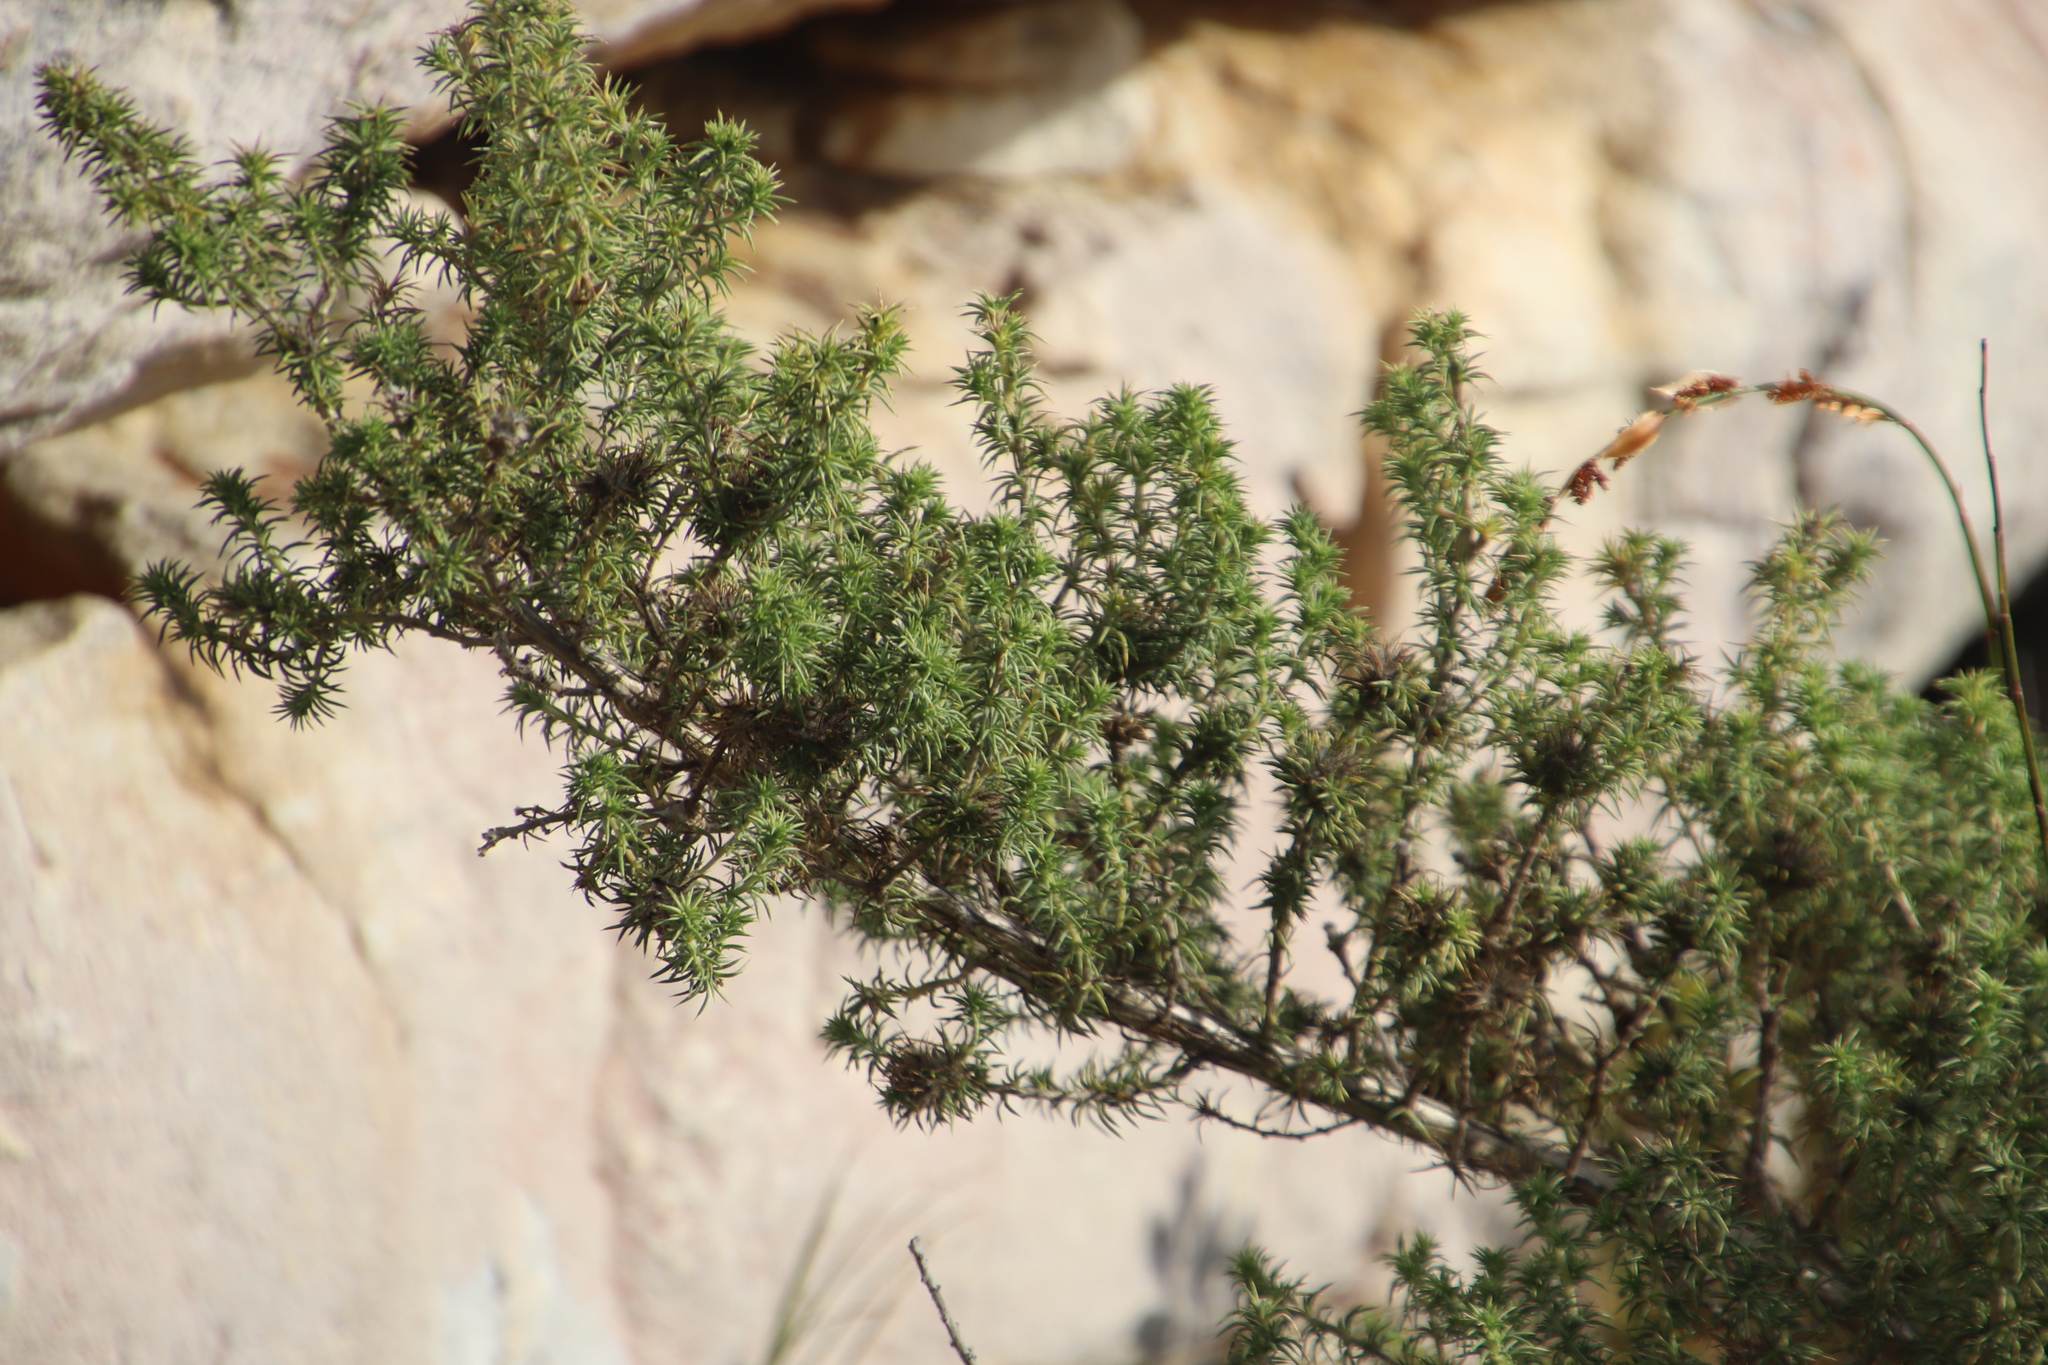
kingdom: Plantae
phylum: Tracheophyta
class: Magnoliopsida
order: Fabales
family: Fabaceae
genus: Aspalathus
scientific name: Aspalathus chenopoda
